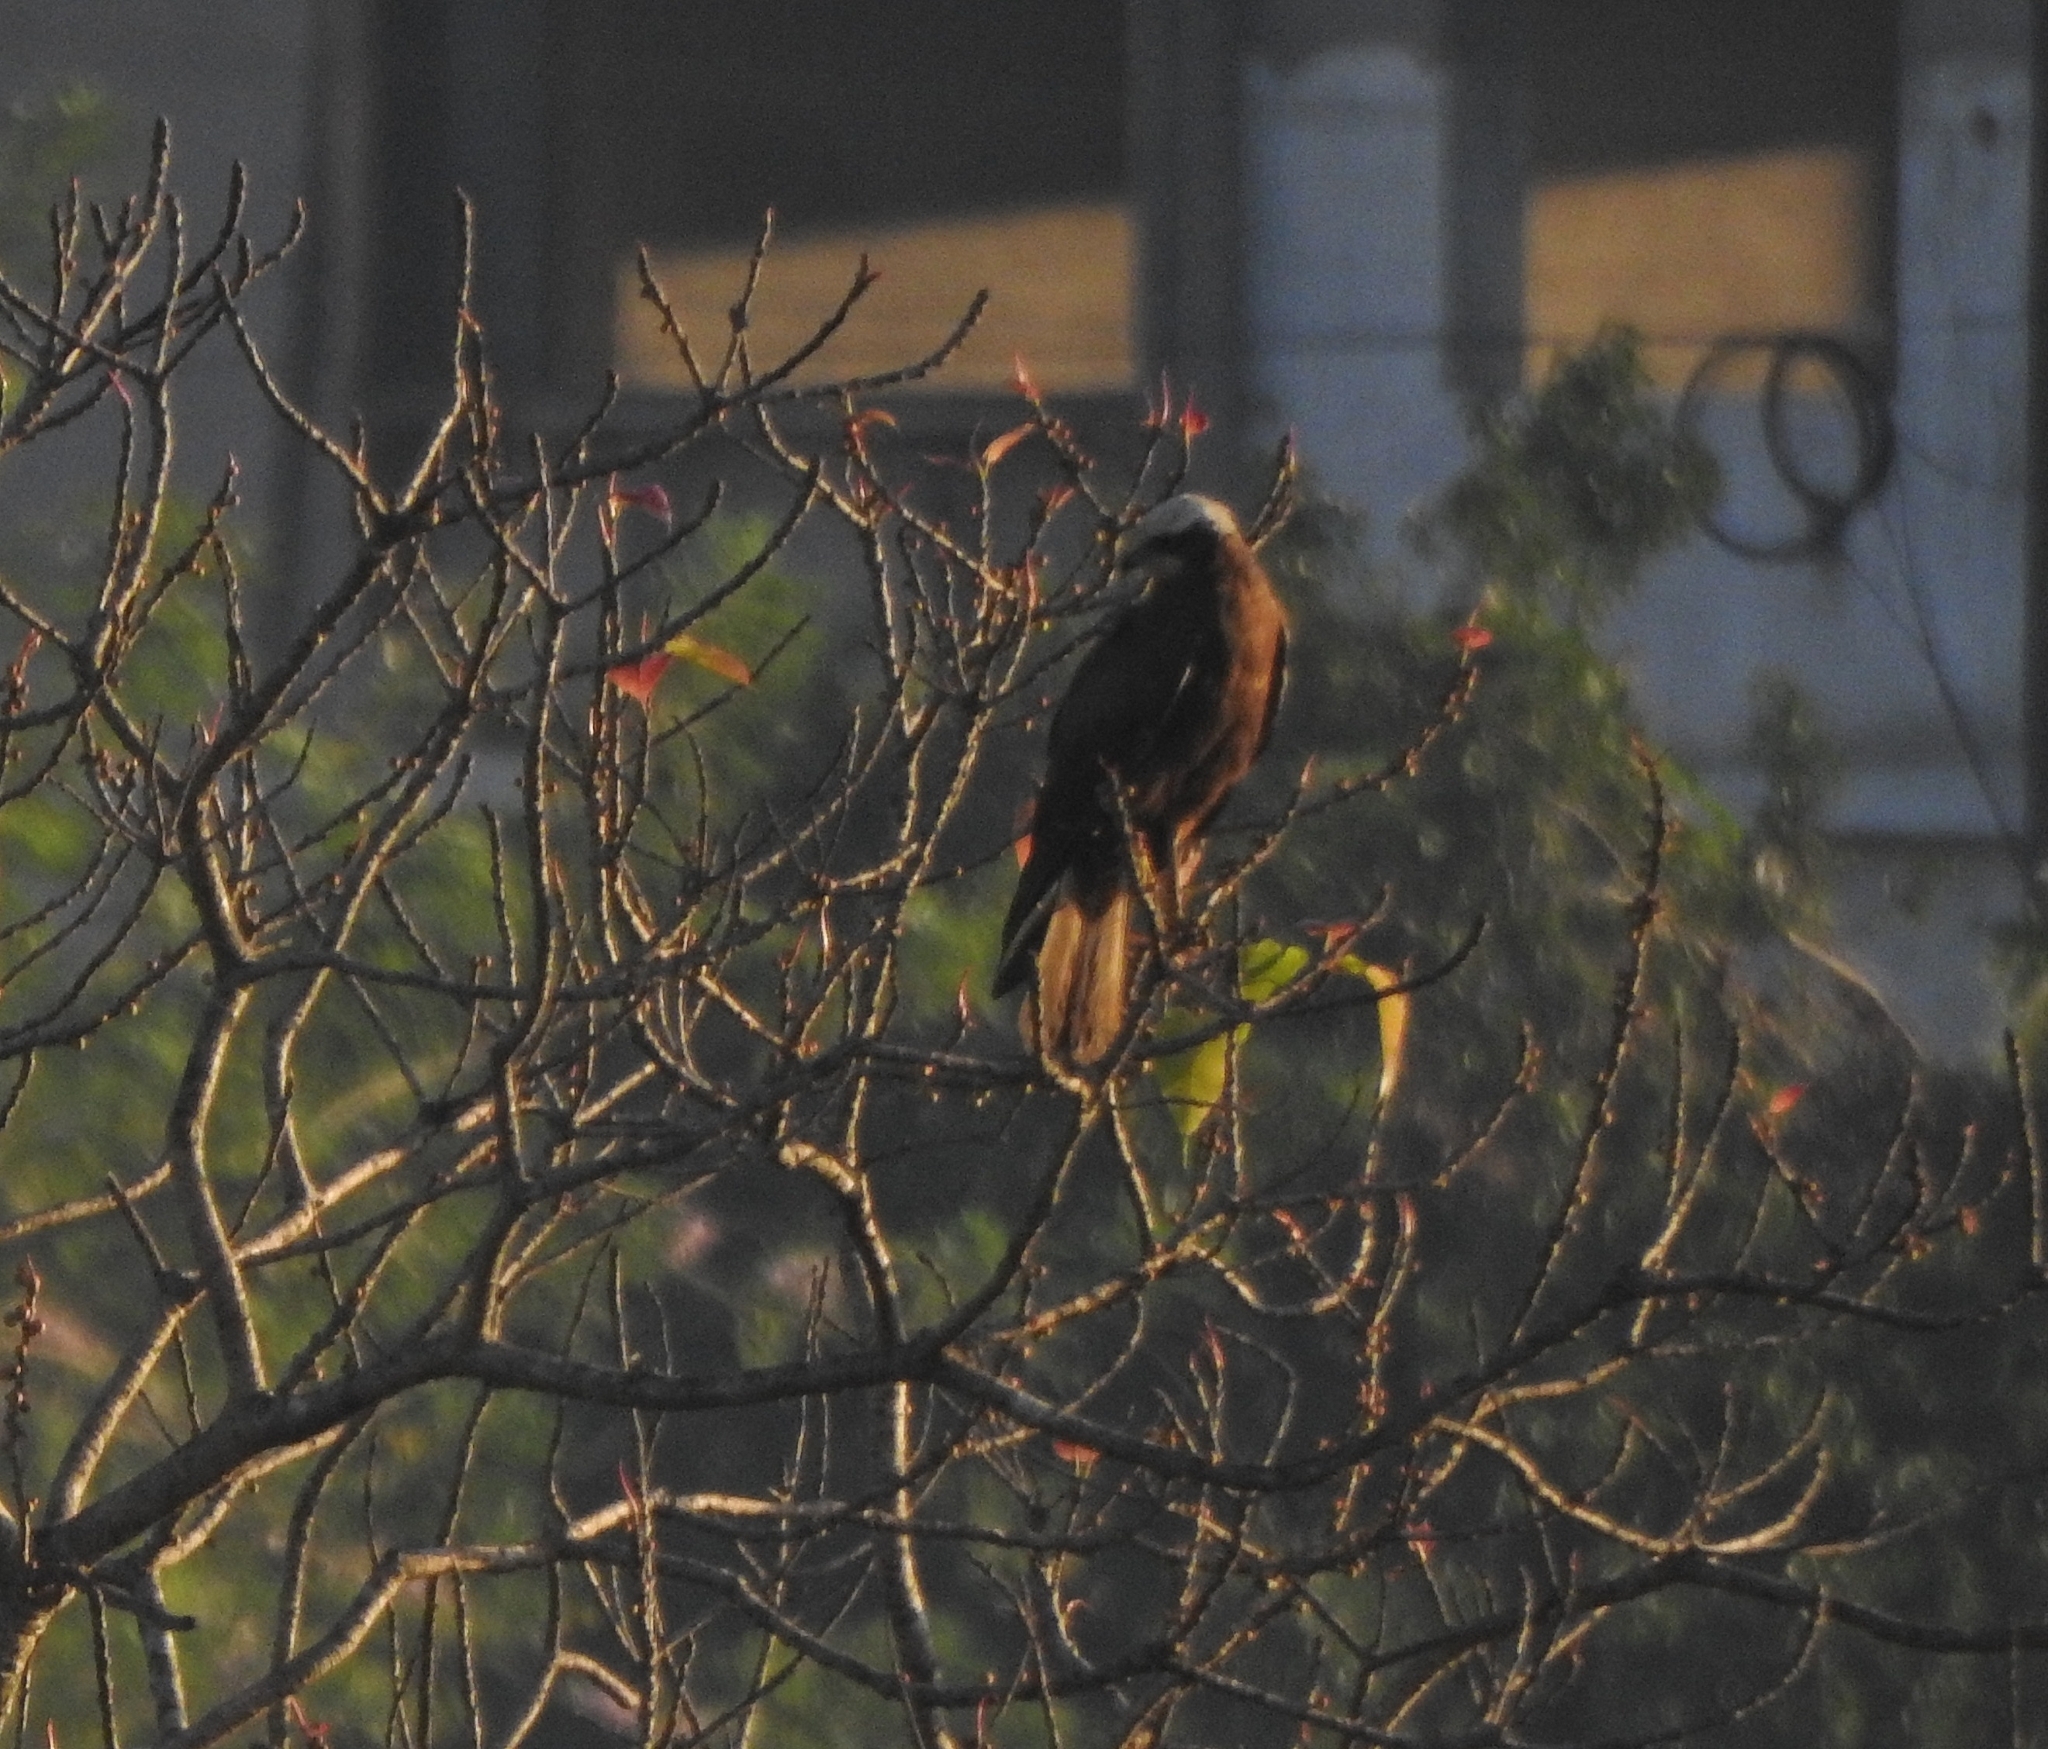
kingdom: Animalia
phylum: Chordata
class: Aves
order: Accipitriformes
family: Accipitridae
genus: Circus
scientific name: Circus aeruginosus
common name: Western marsh harrier
